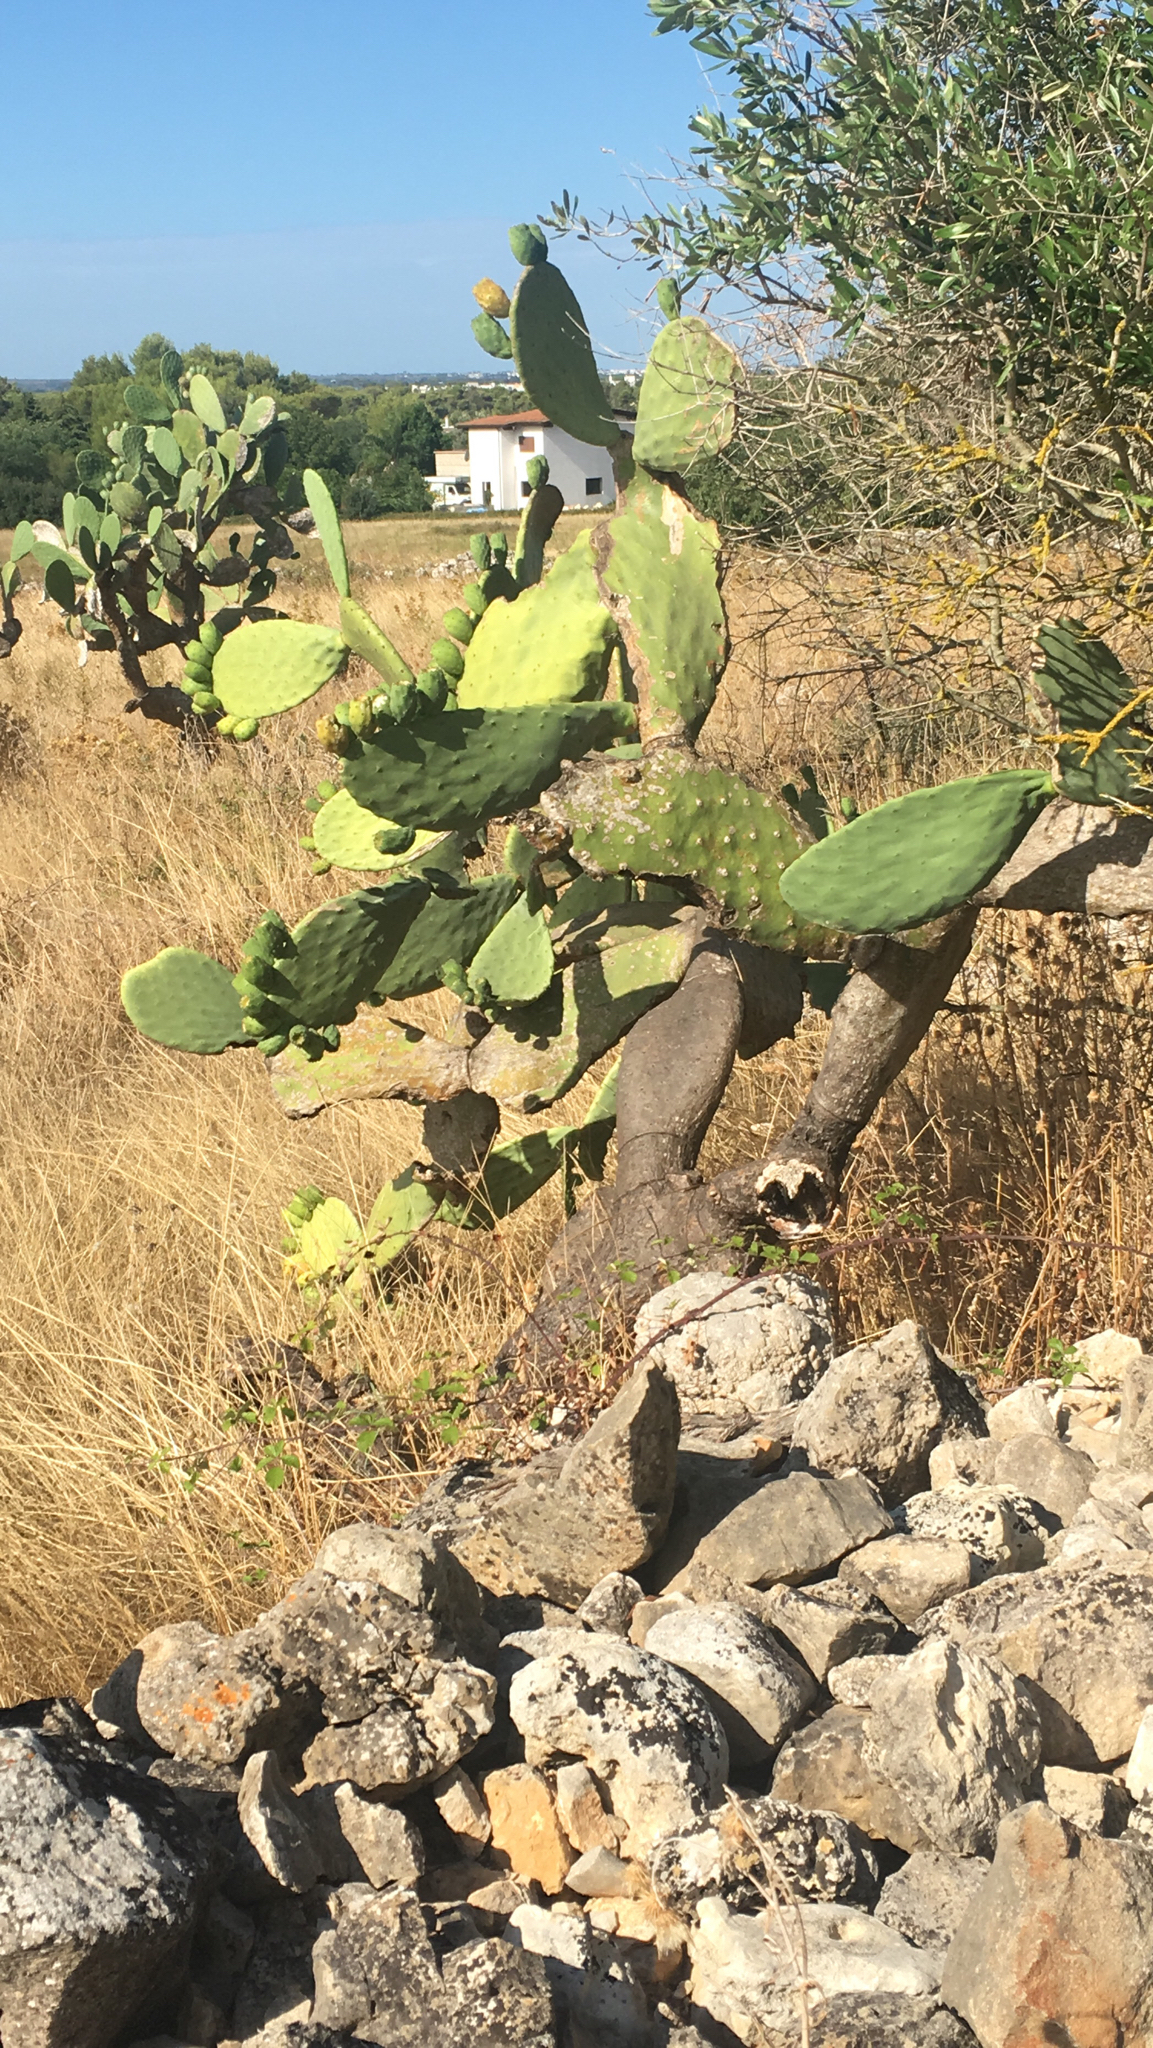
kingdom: Plantae
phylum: Tracheophyta
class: Magnoliopsida
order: Caryophyllales
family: Cactaceae
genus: Opuntia
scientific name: Opuntia ficus-indica
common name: Barbary fig
